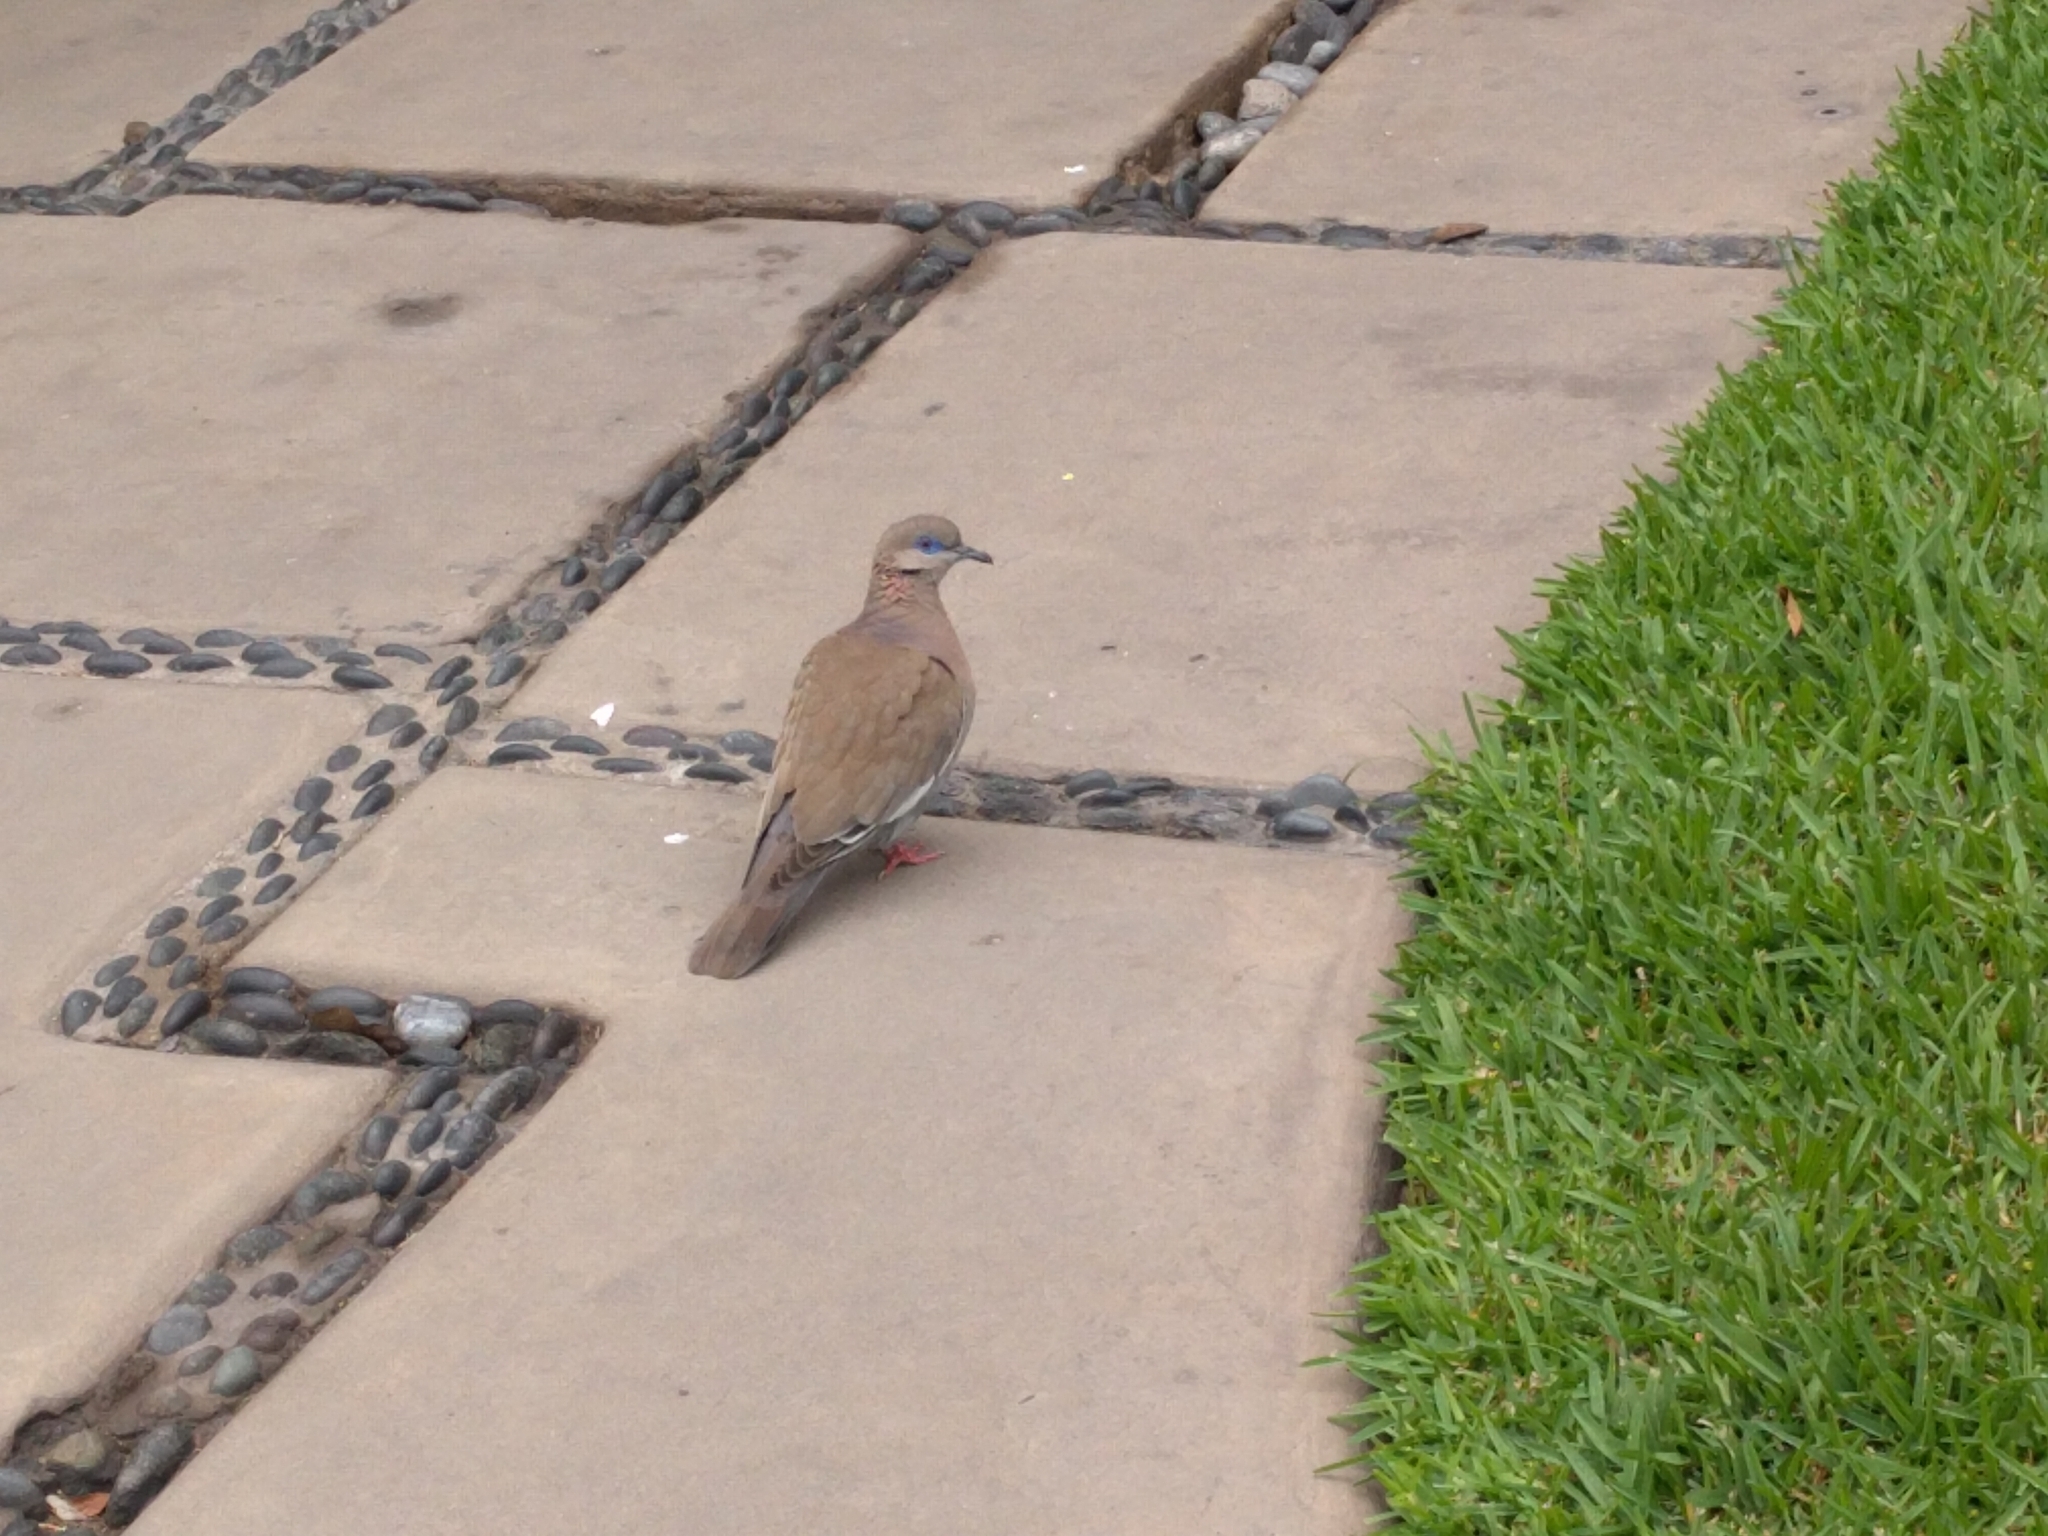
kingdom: Animalia
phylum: Chordata
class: Aves
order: Columbiformes
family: Columbidae
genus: Zenaida
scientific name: Zenaida meloda
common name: West peruvian dove
